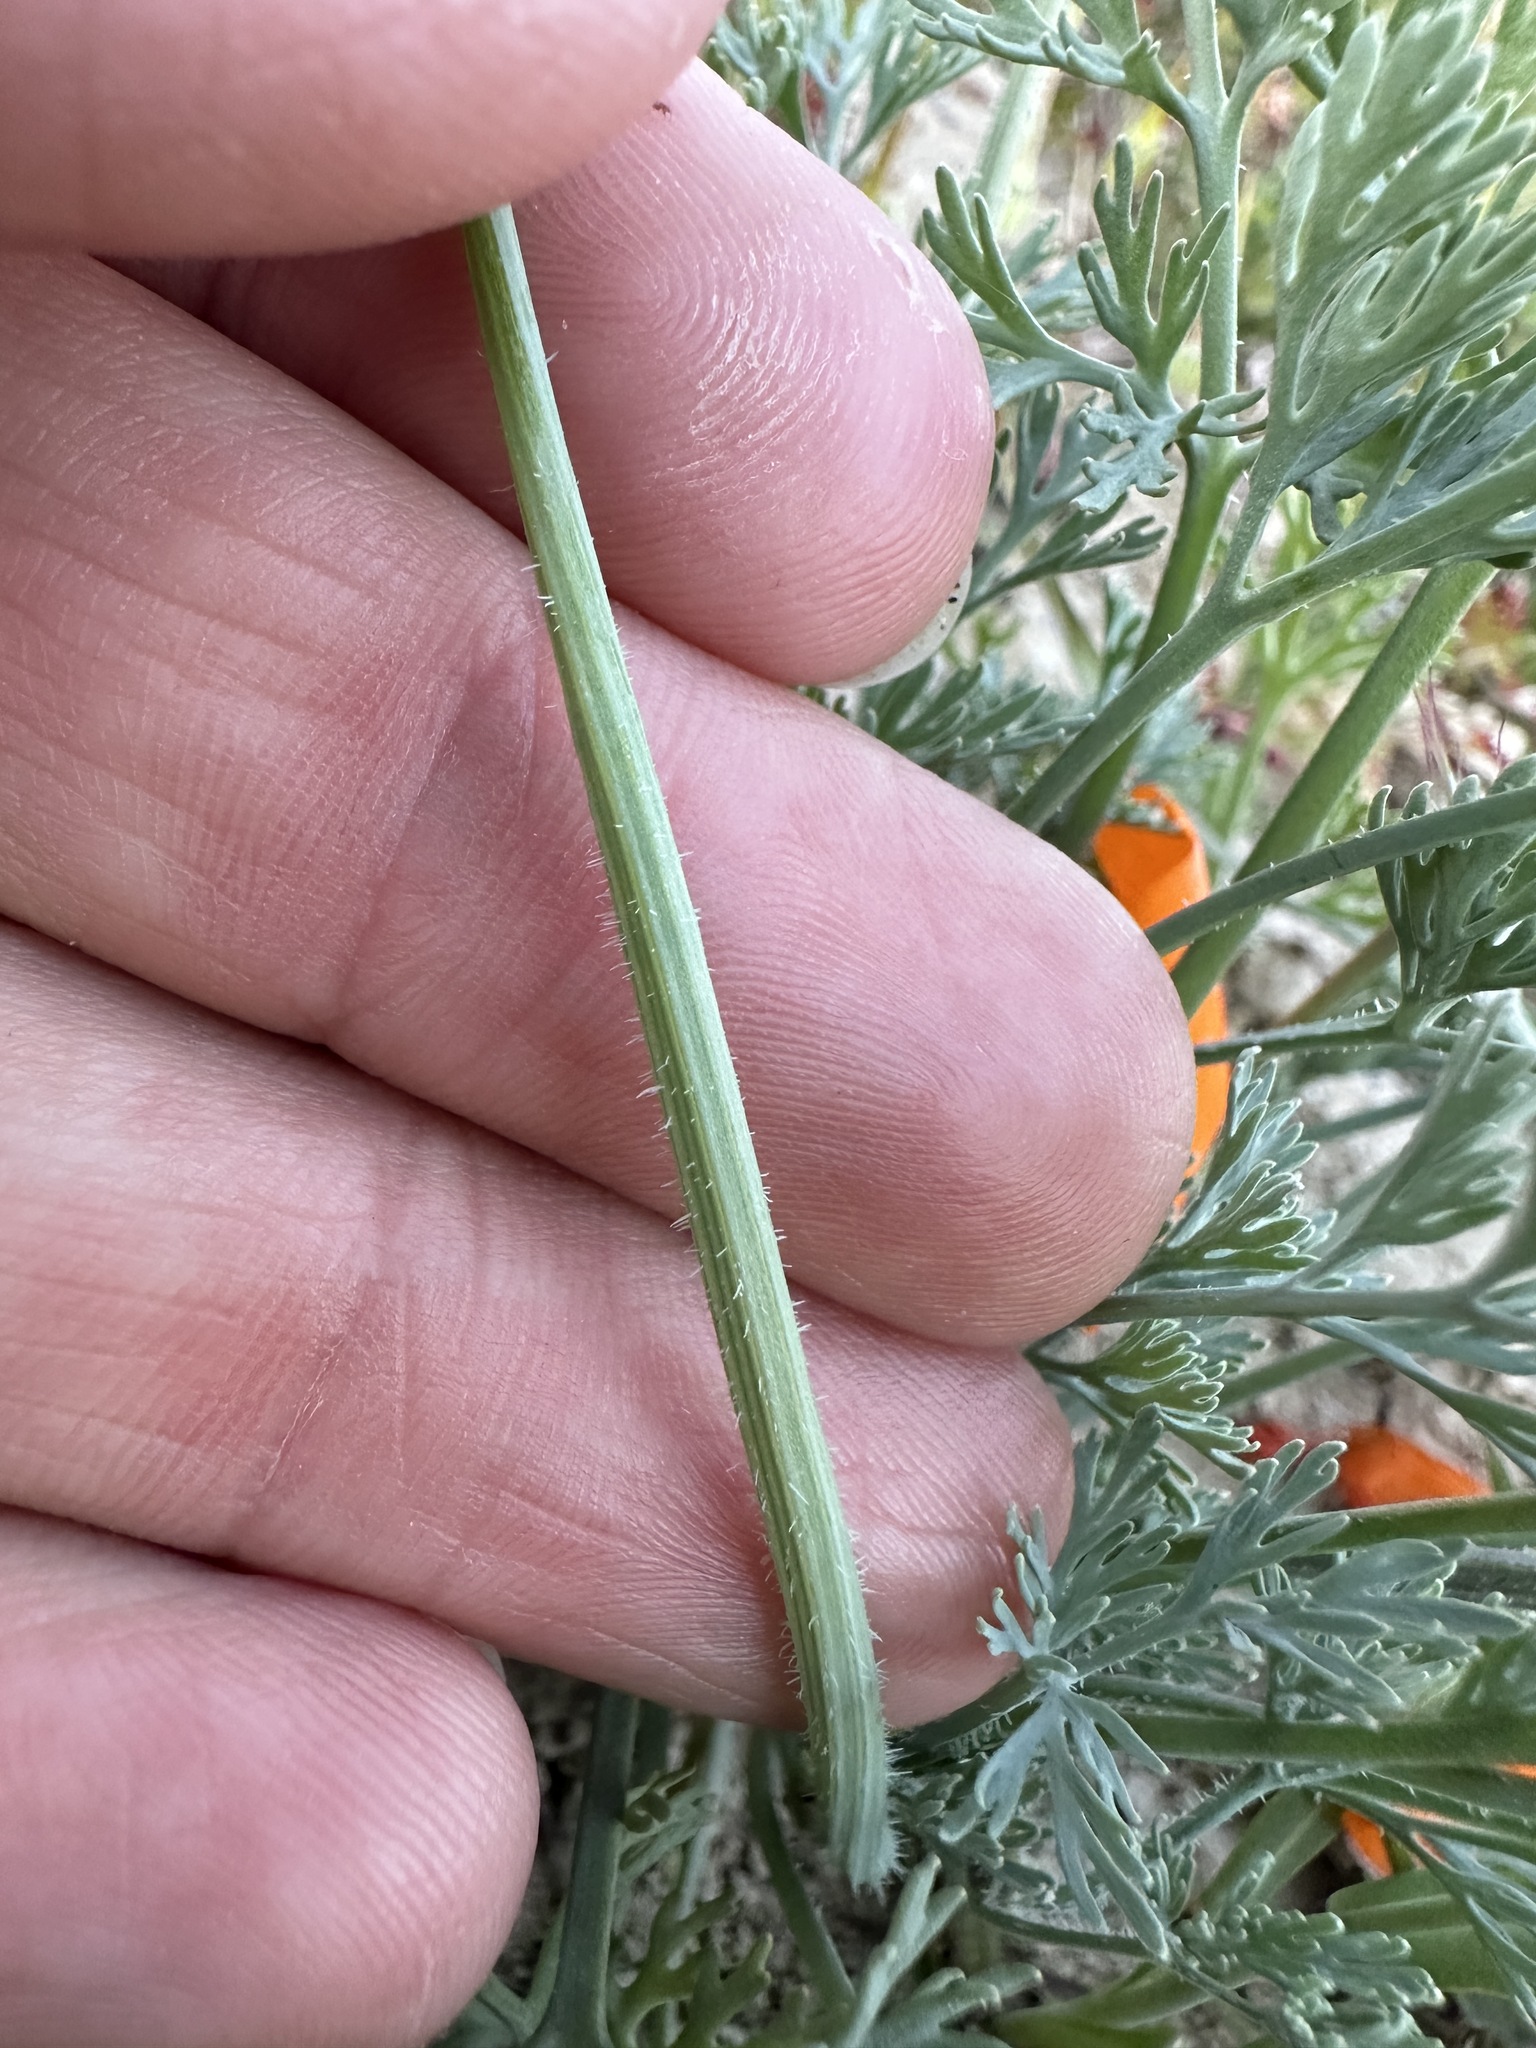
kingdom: Plantae
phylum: Tracheophyta
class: Magnoliopsida
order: Ranunculales
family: Papaveraceae
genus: Eschscholzia
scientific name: Eschscholzia lemmonii
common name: Lemmon's poppy
